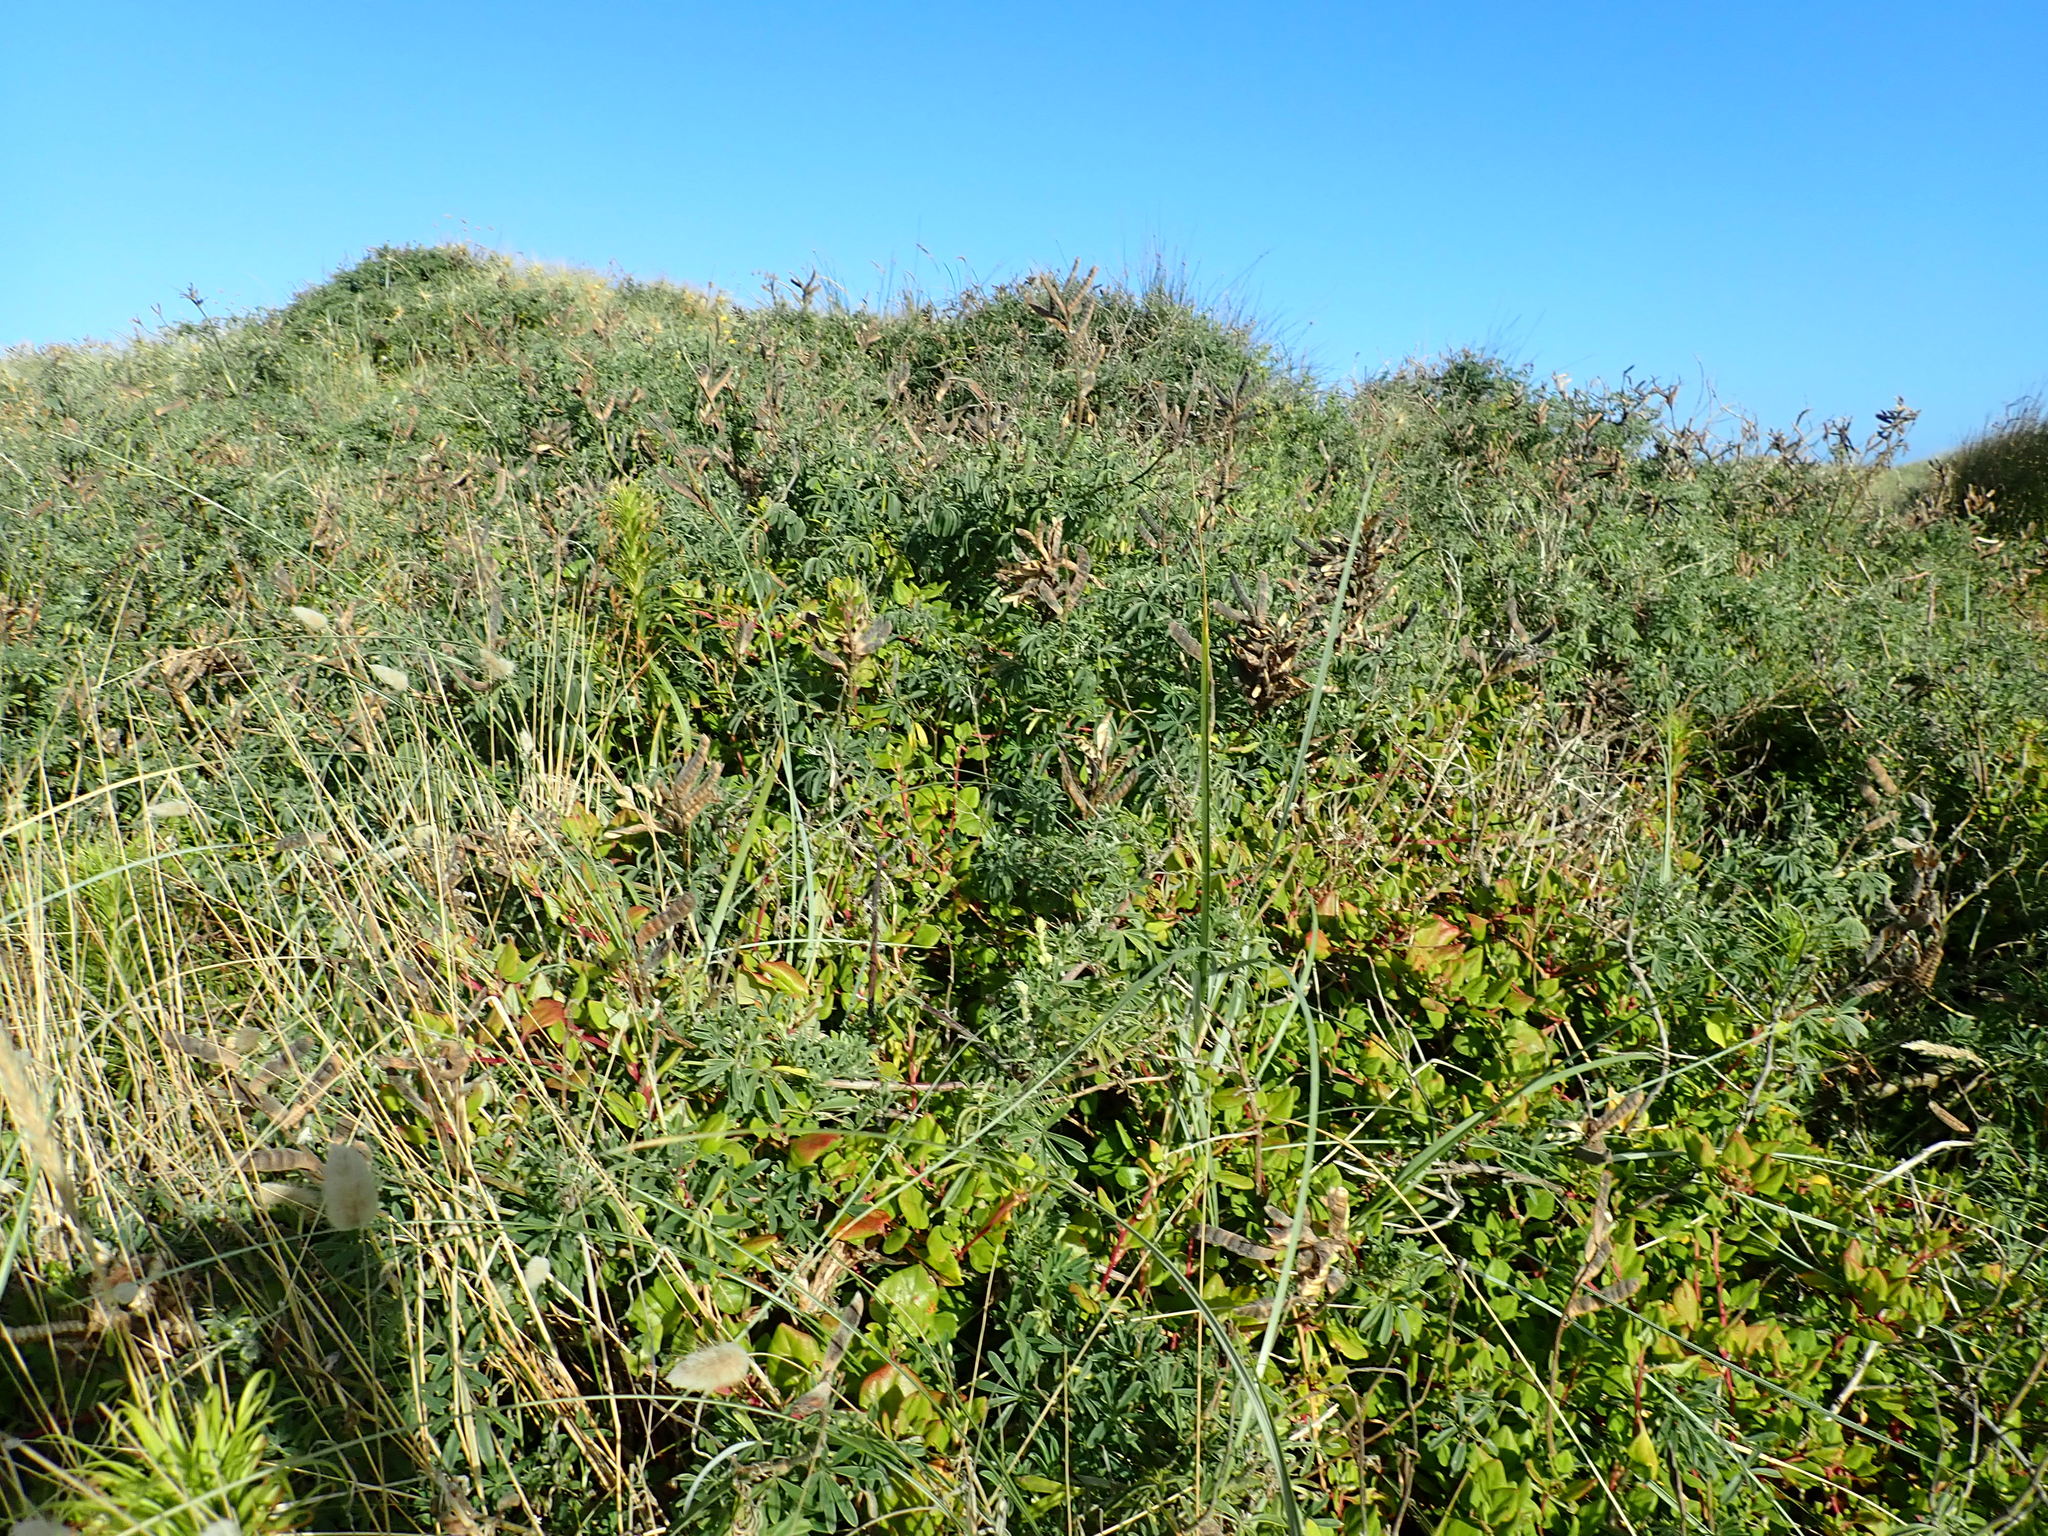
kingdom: Plantae
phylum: Tracheophyta
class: Magnoliopsida
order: Caryophyllales
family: Aizoaceae
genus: Tetragonia
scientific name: Tetragonia implexicoma
